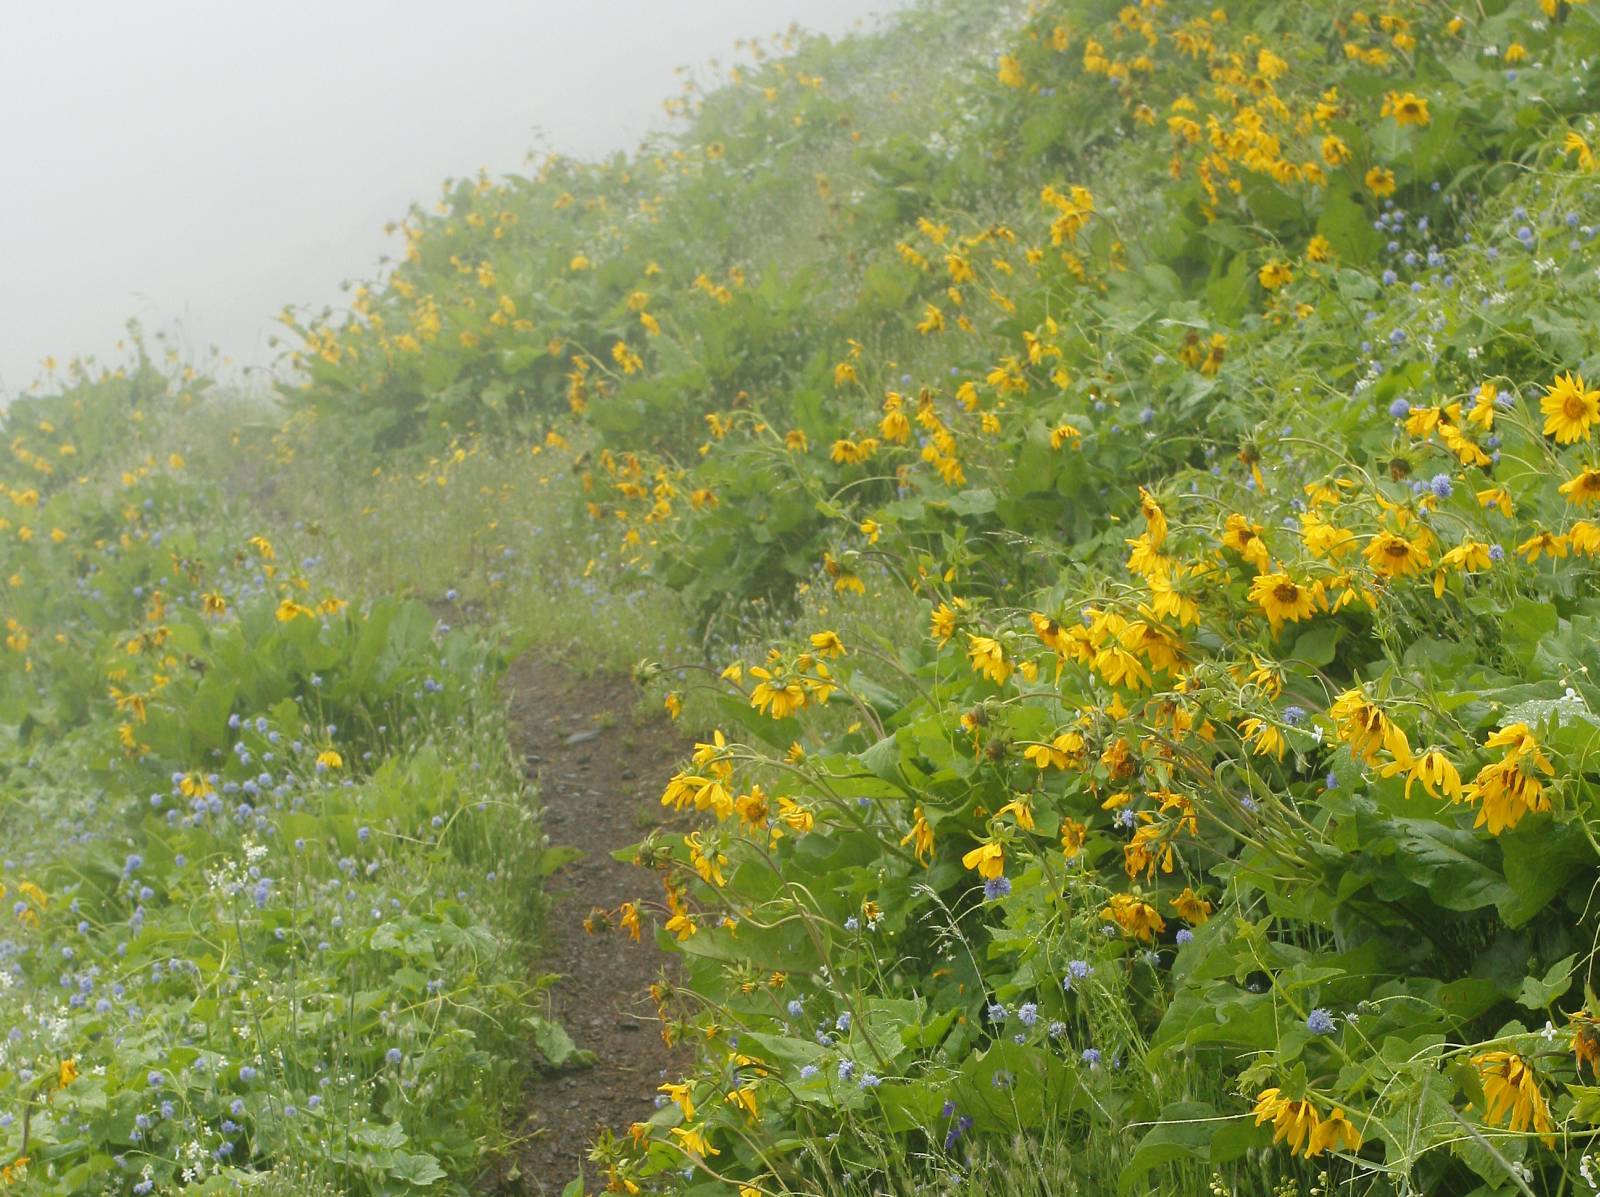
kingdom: Plantae
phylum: Tracheophyta
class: Magnoliopsida
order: Asterales
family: Asteraceae
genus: Balsamorhiza
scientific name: Balsamorhiza deltoidea
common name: Deltoid balsamroot
